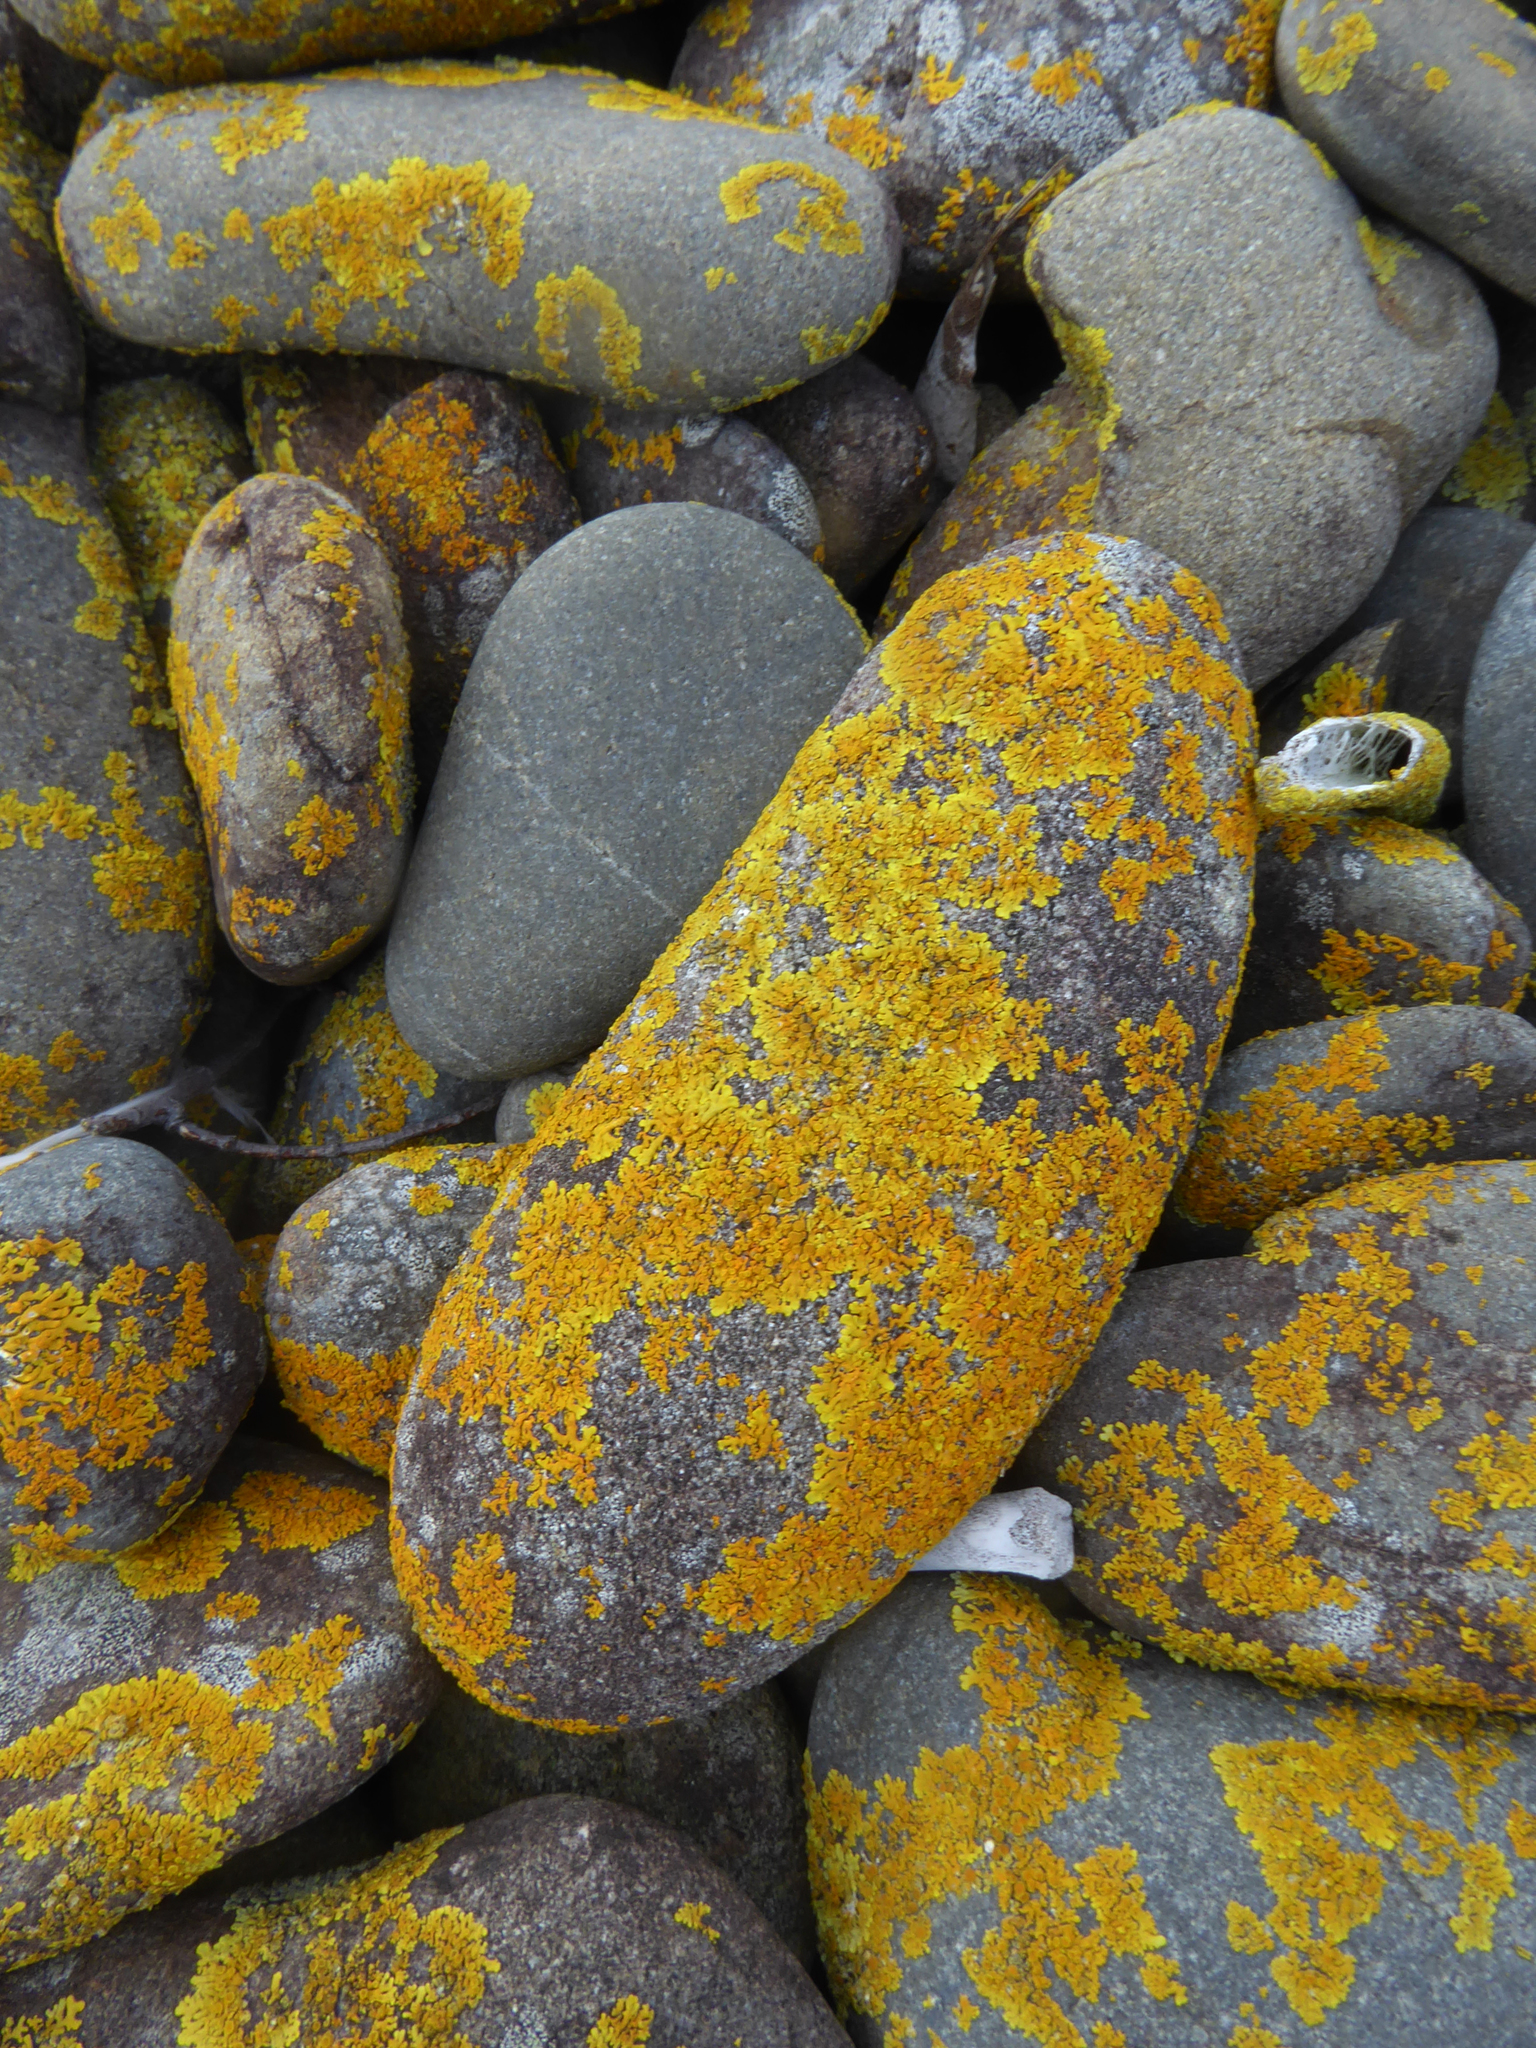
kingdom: Fungi
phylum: Ascomycota
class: Lecanoromycetes
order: Teloschistales
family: Teloschistaceae
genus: Xanthoria
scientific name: Xanthoria parietina
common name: Common orange lichen
